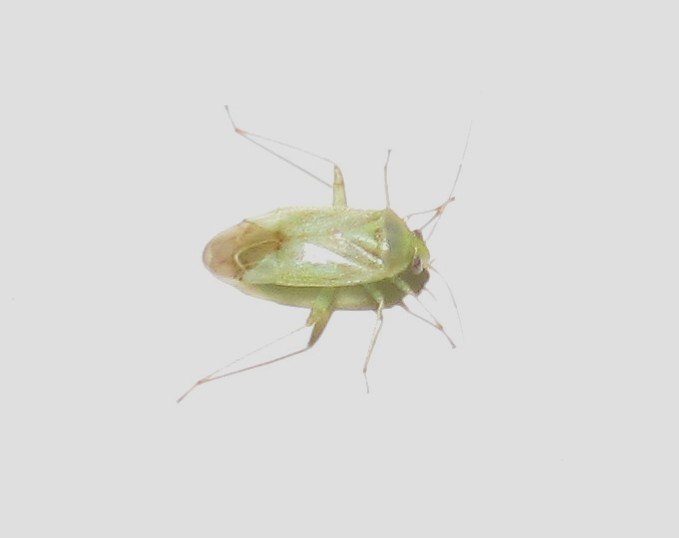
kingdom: Animalia
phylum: Arthropoda
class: Insecta
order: Hemiptera
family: Miridae
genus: Taylorilygus
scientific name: Taylorilygus apicalis
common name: Plant bug
